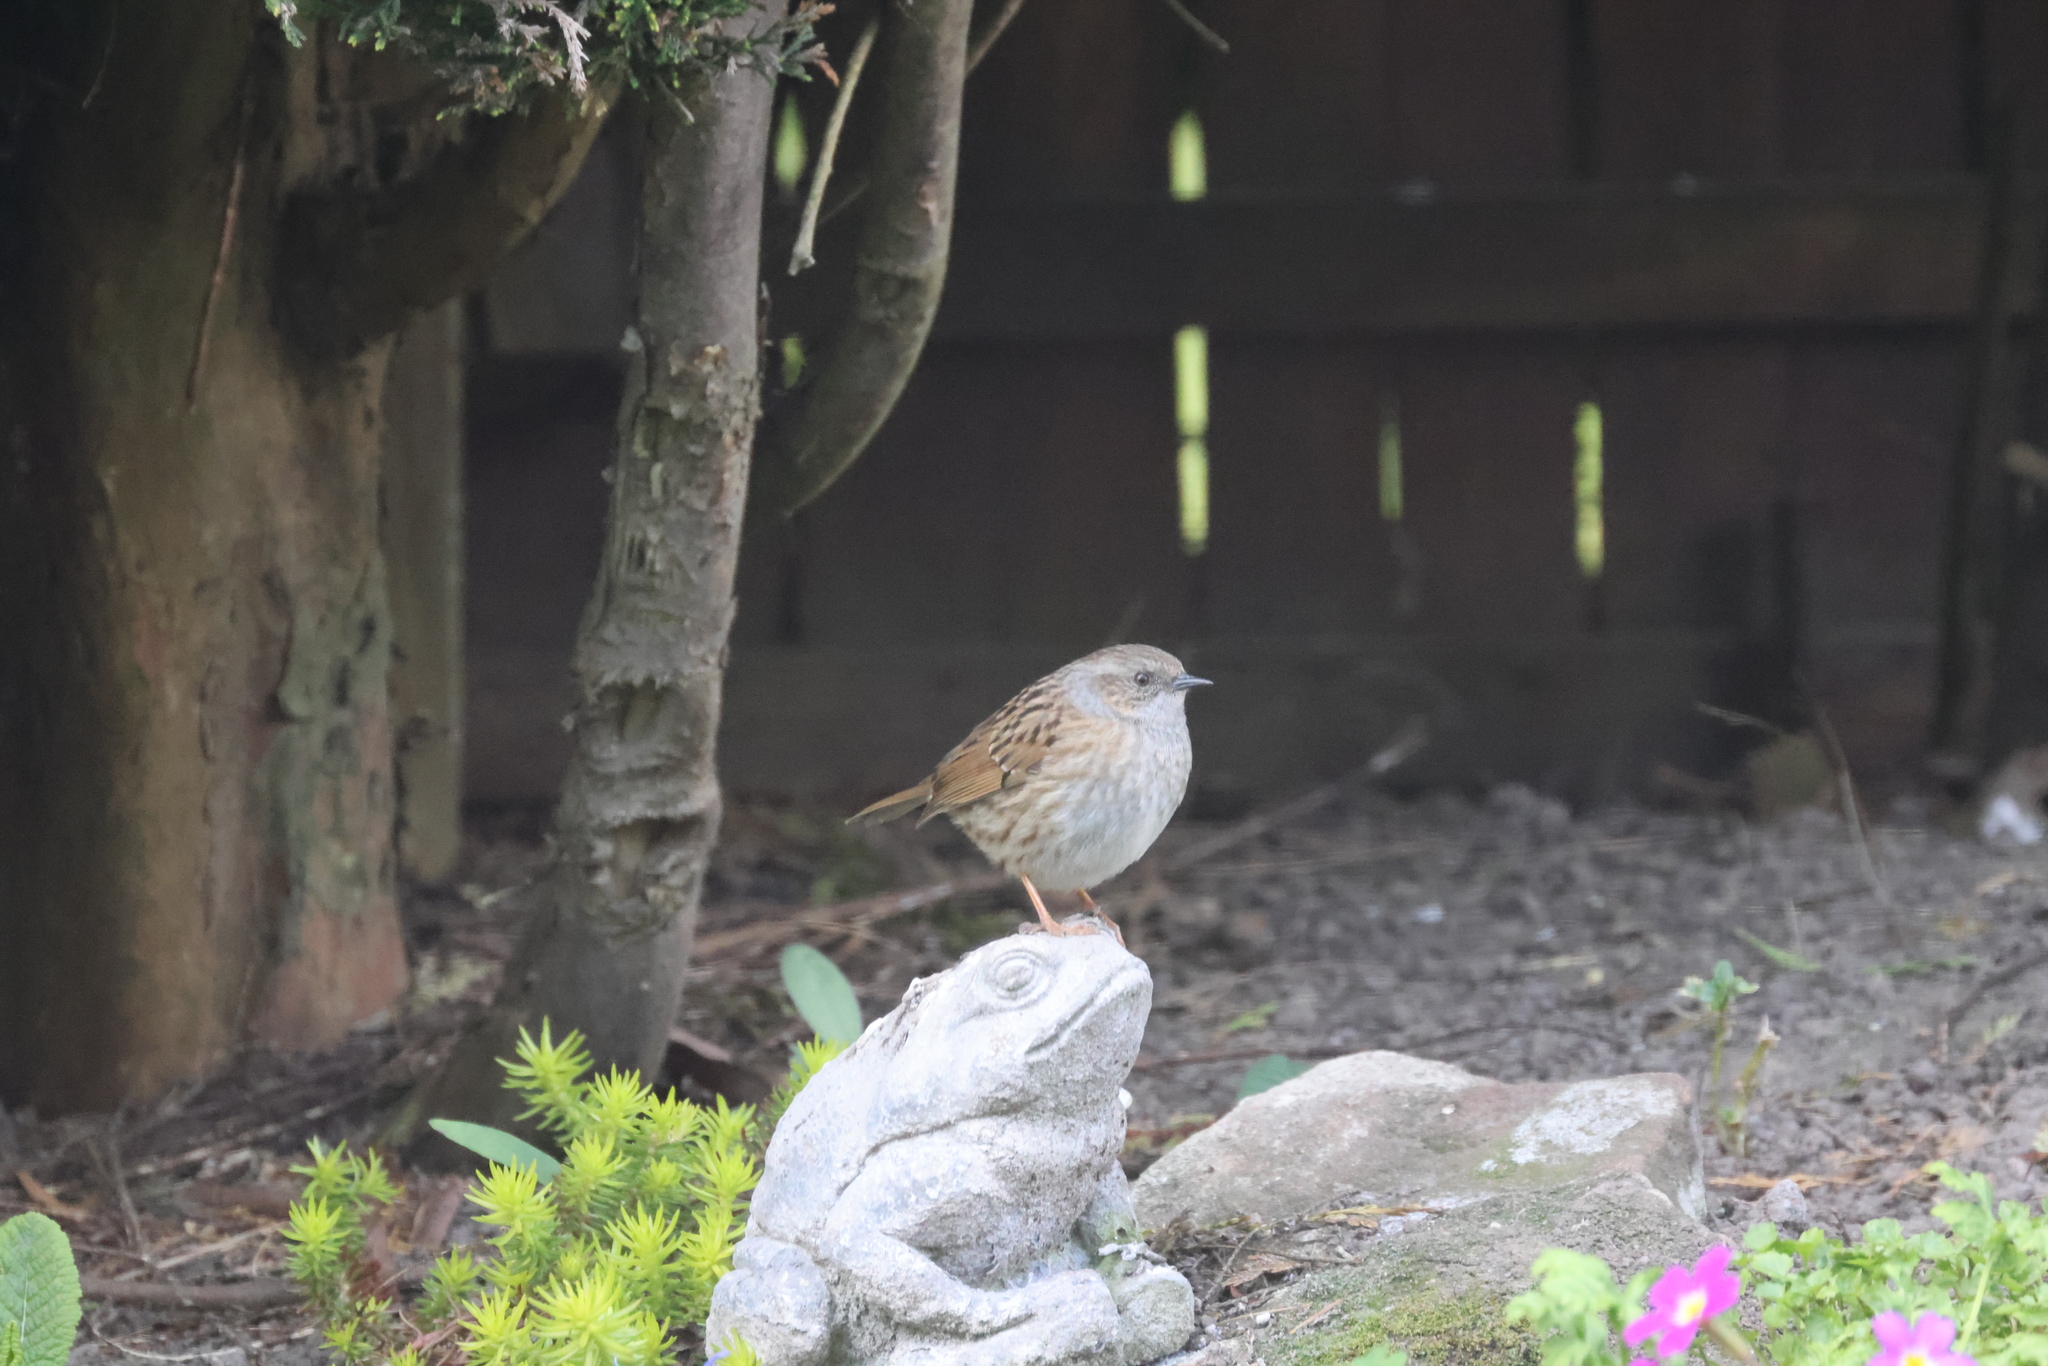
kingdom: Animalia
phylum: Chordata
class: Aves
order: Passeriformes
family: Prunellidae
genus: Prunella
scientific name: Prunella modularis
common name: Dunnock
